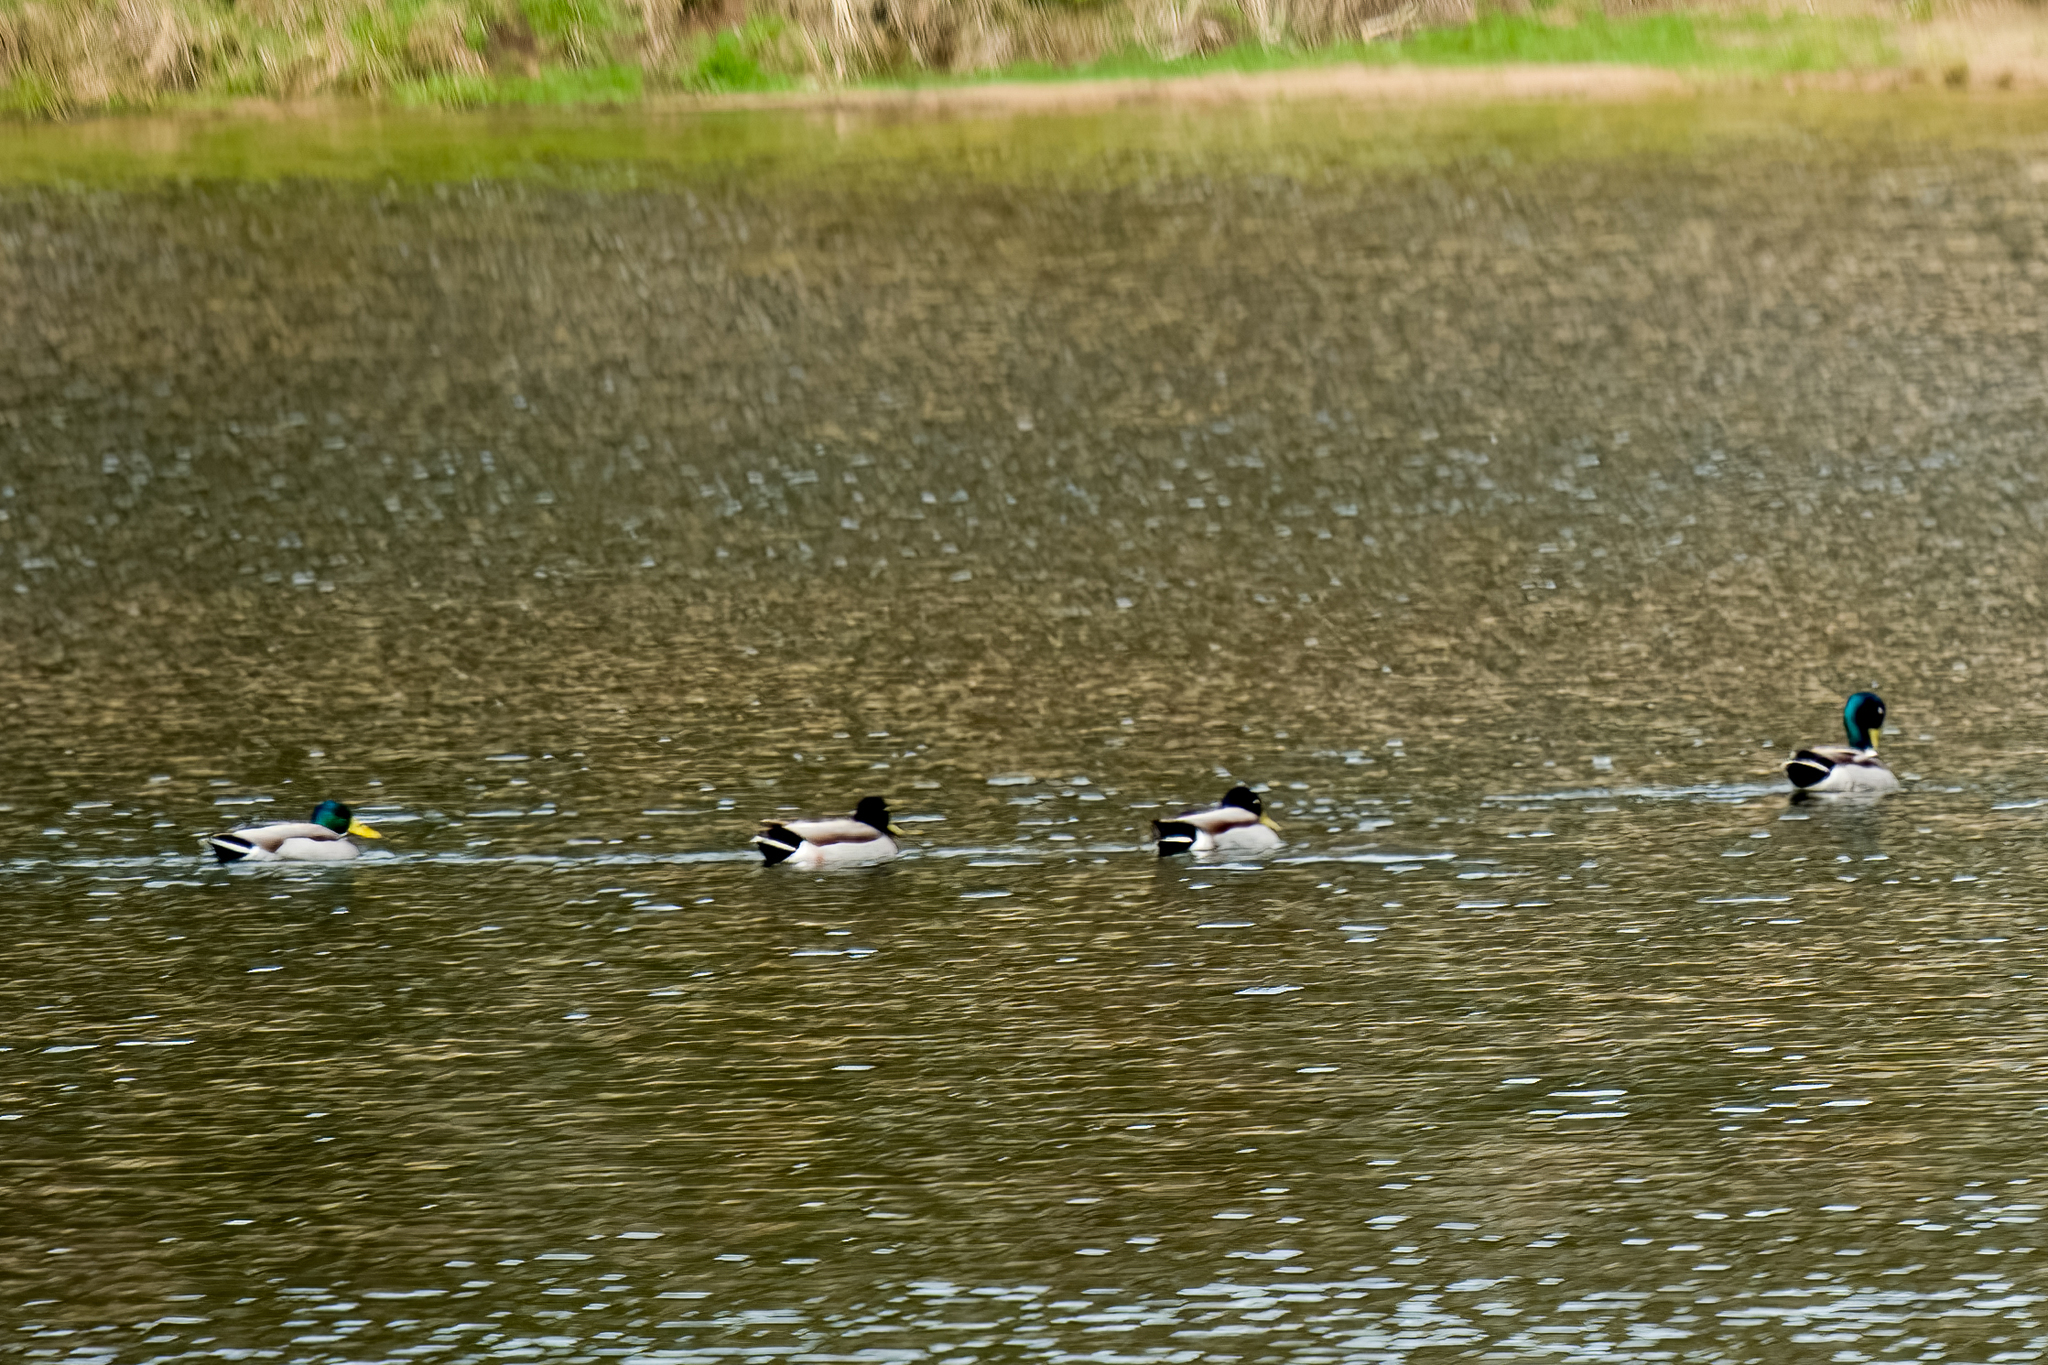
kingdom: Animalia
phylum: Chordata
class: Aves
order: Anseriformes
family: Anatidae
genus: Anas
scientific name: Anas platyrhynchos
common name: Mallard
